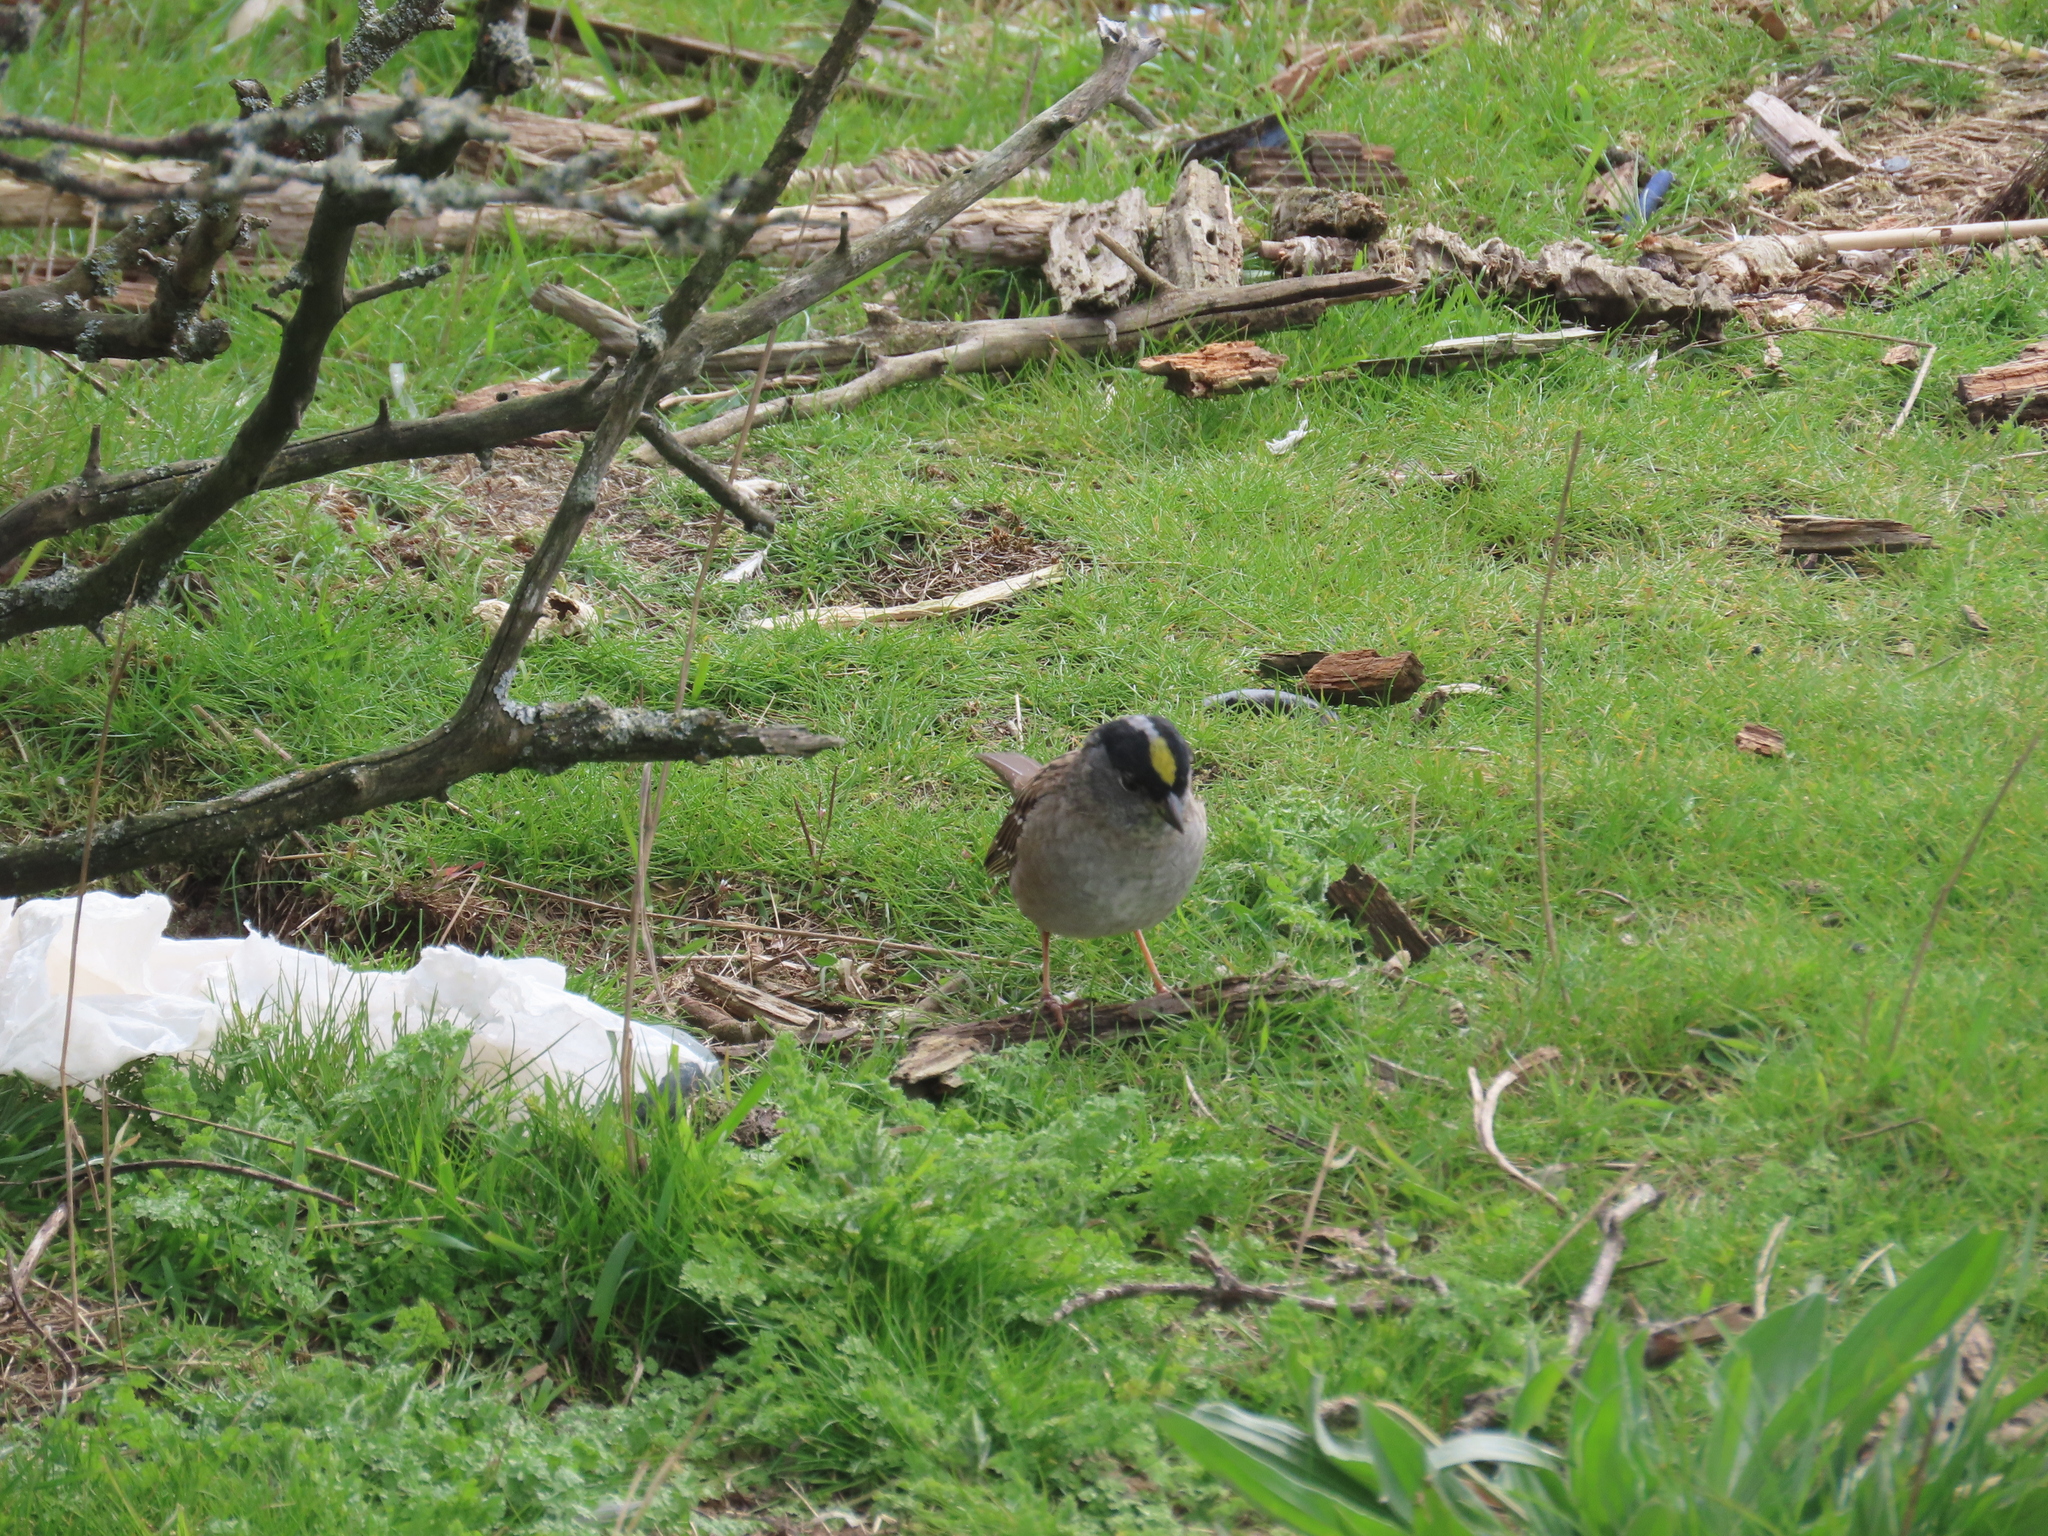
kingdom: Animalia
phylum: Chordata
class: Aves
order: Passeriformes
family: Passerellidae
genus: Zonotrichia
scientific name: Zonotrichia atricapilla
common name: Golden-crowned sparrow
